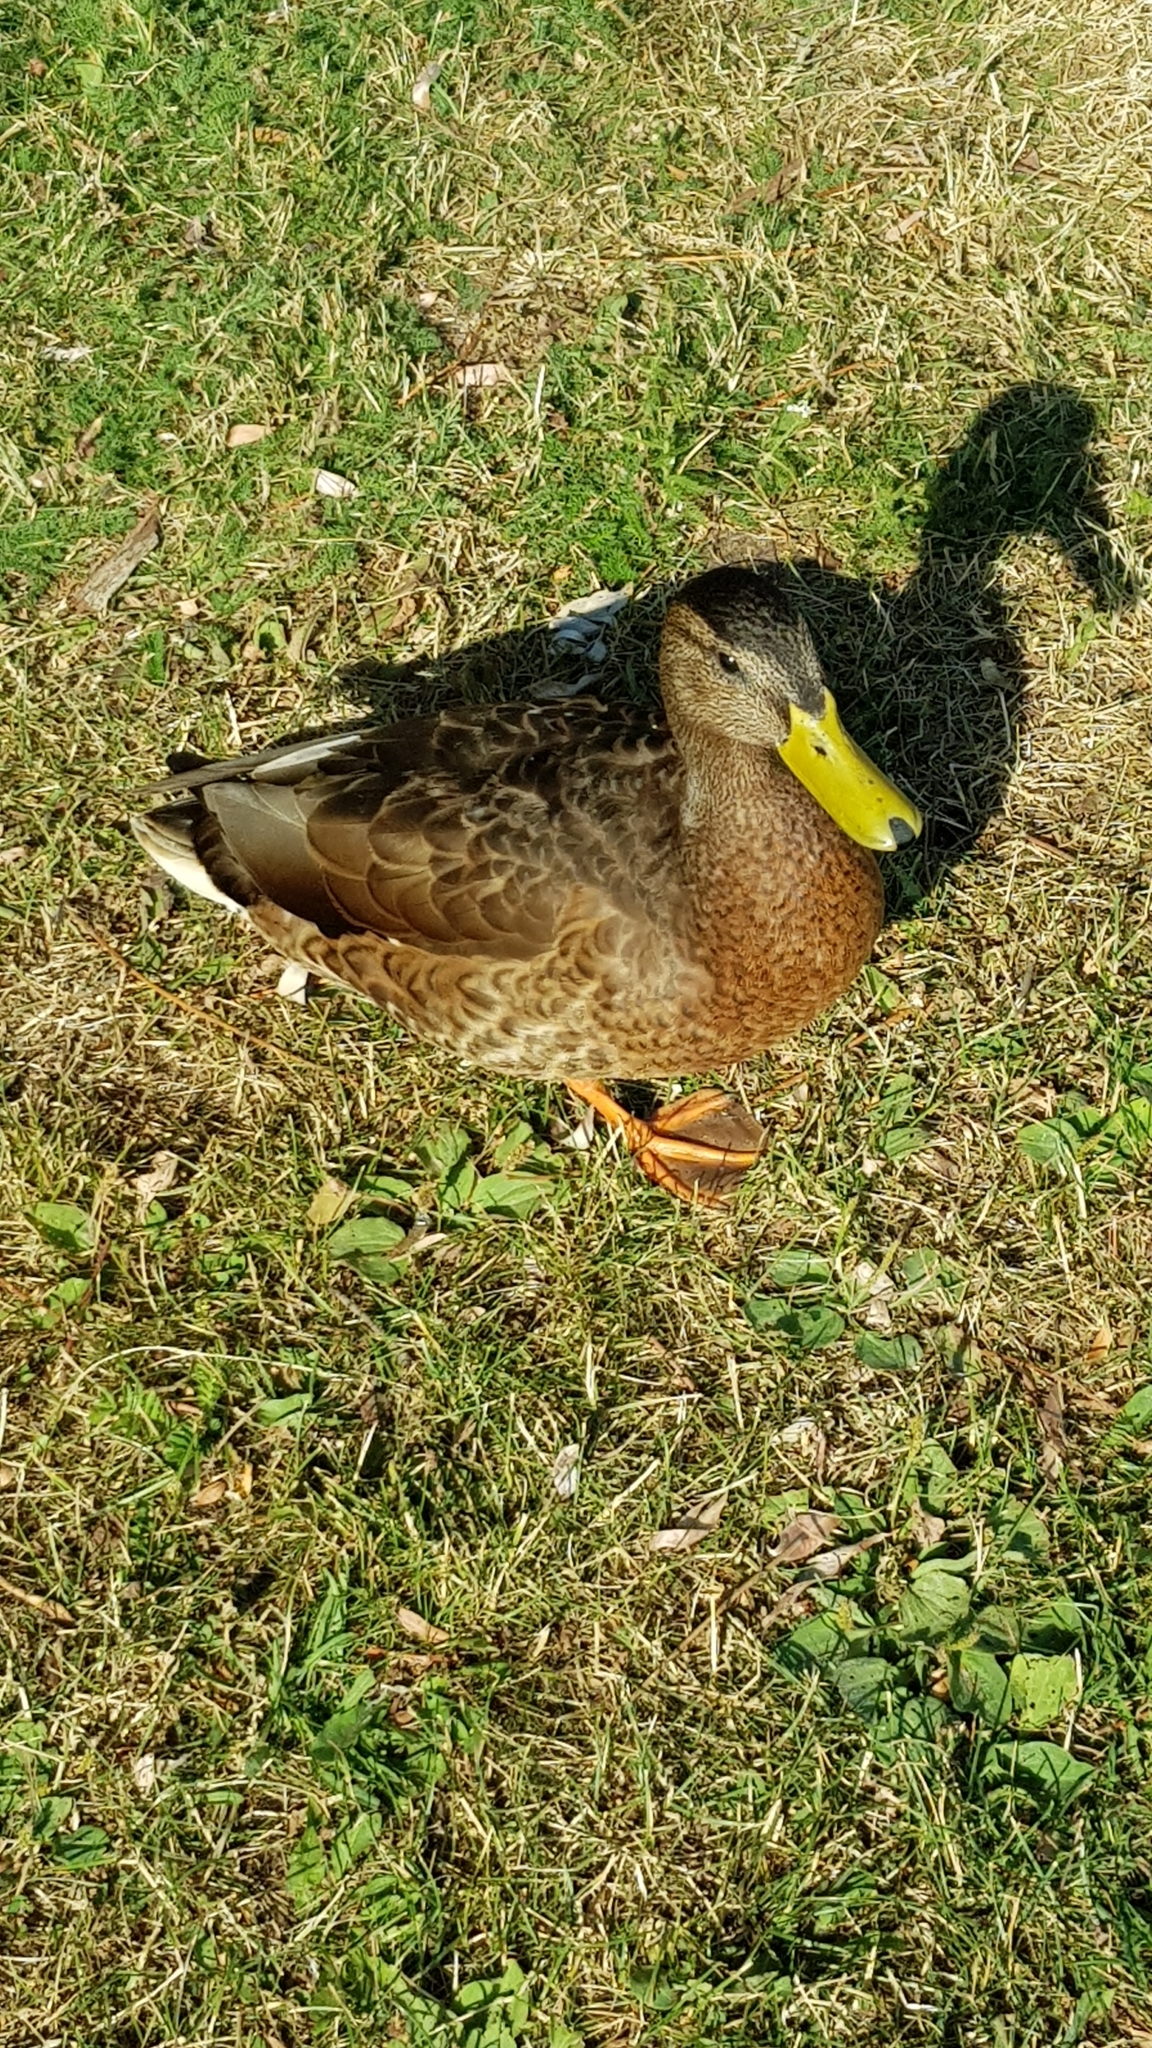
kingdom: Animalia
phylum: Chordata
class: Aves
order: Anseriformes
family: Anatidae
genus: Anas
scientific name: Anas platyrhynchos
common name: Mallard
